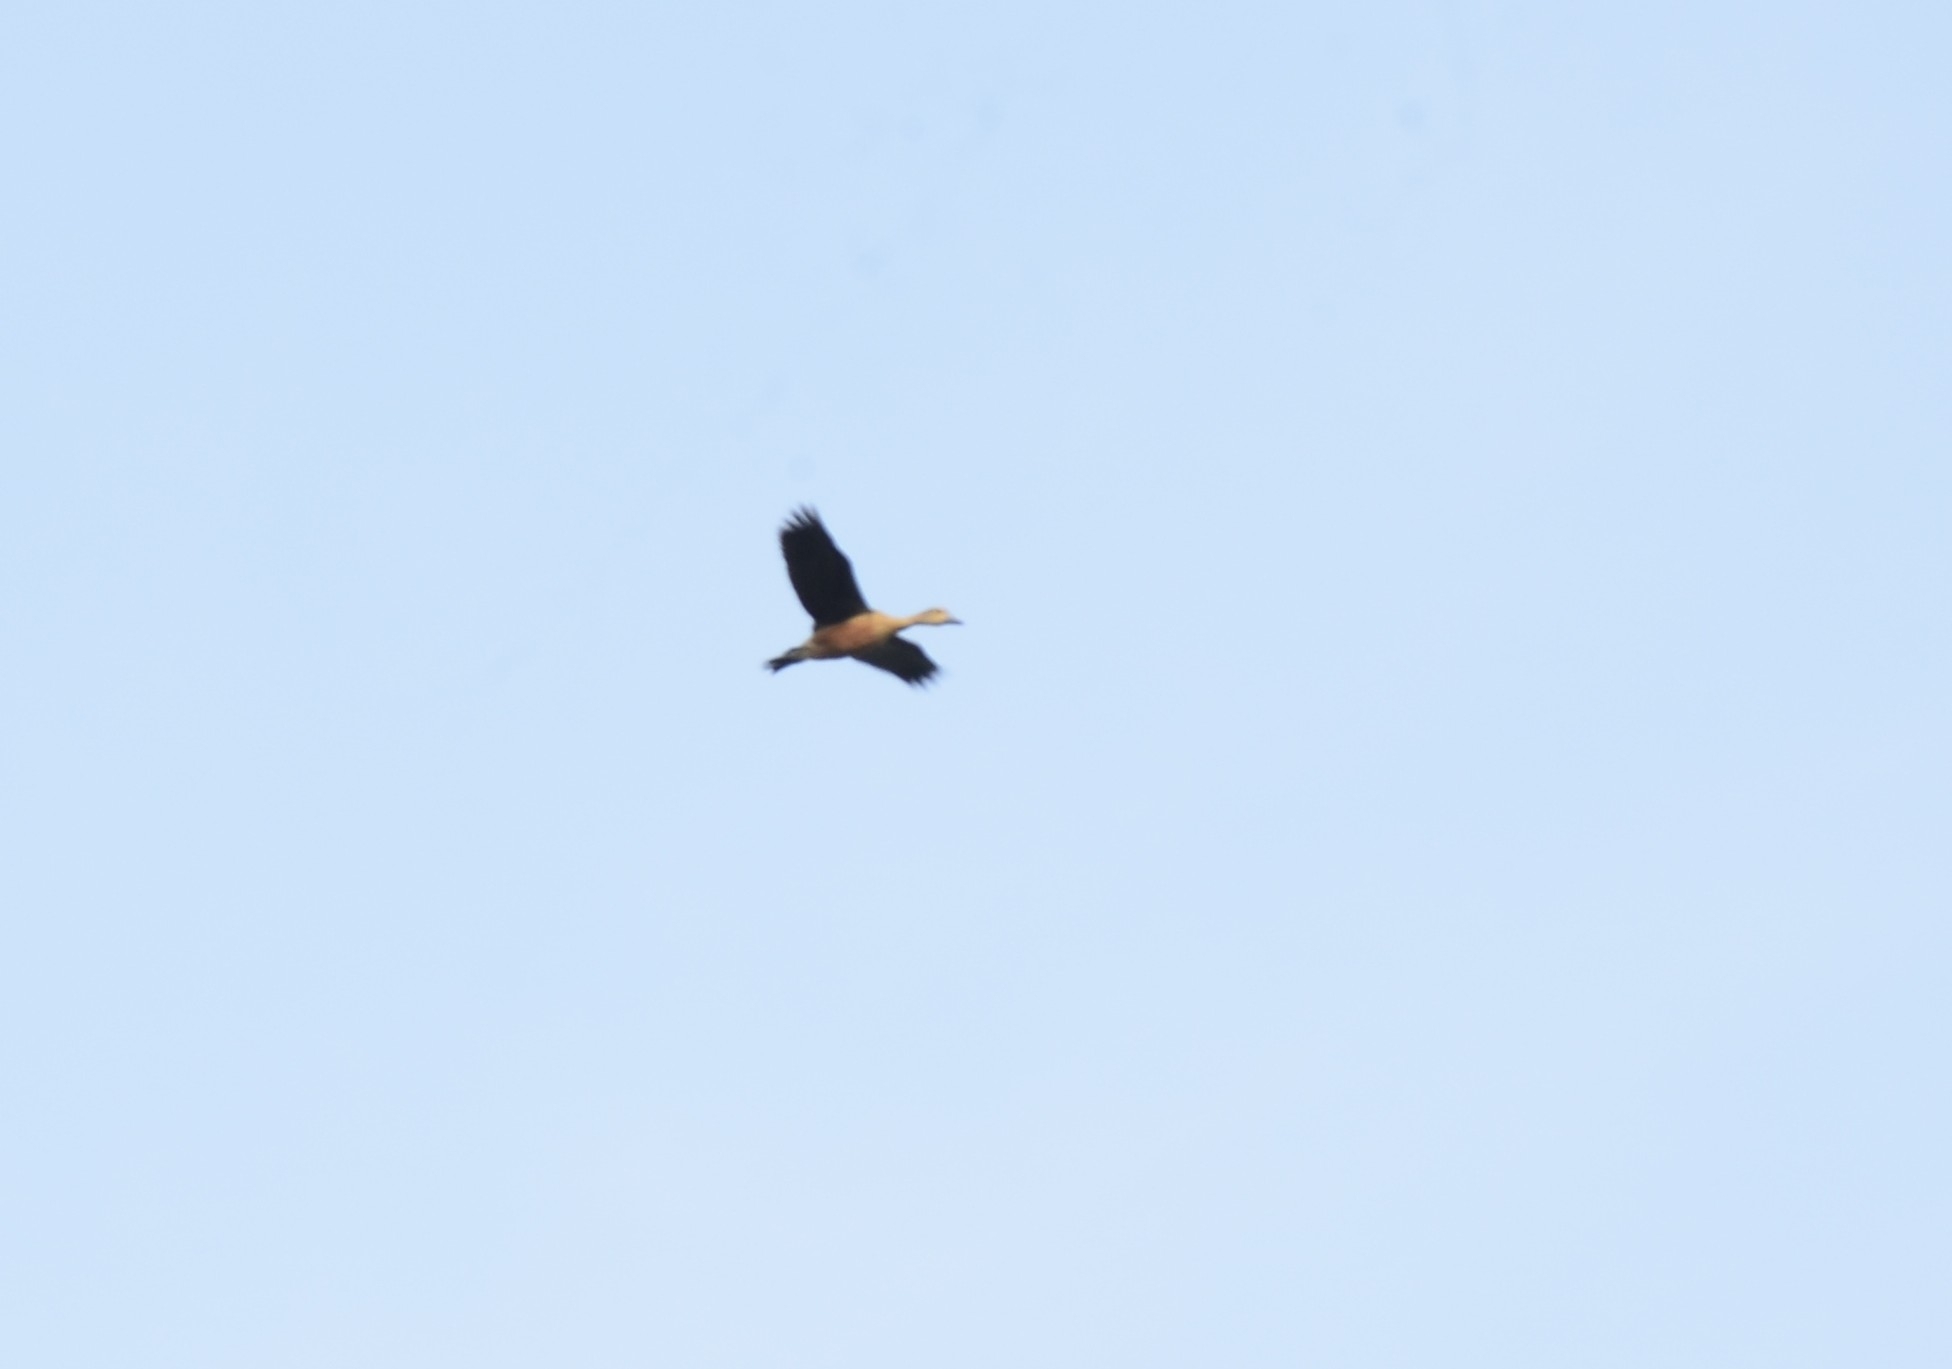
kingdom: Animalia
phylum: Chordata
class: Aves
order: Anseriformes
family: Anatidae
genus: Dendrocygna
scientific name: Dendrocygna javanica
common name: Lesser whistling-duck
